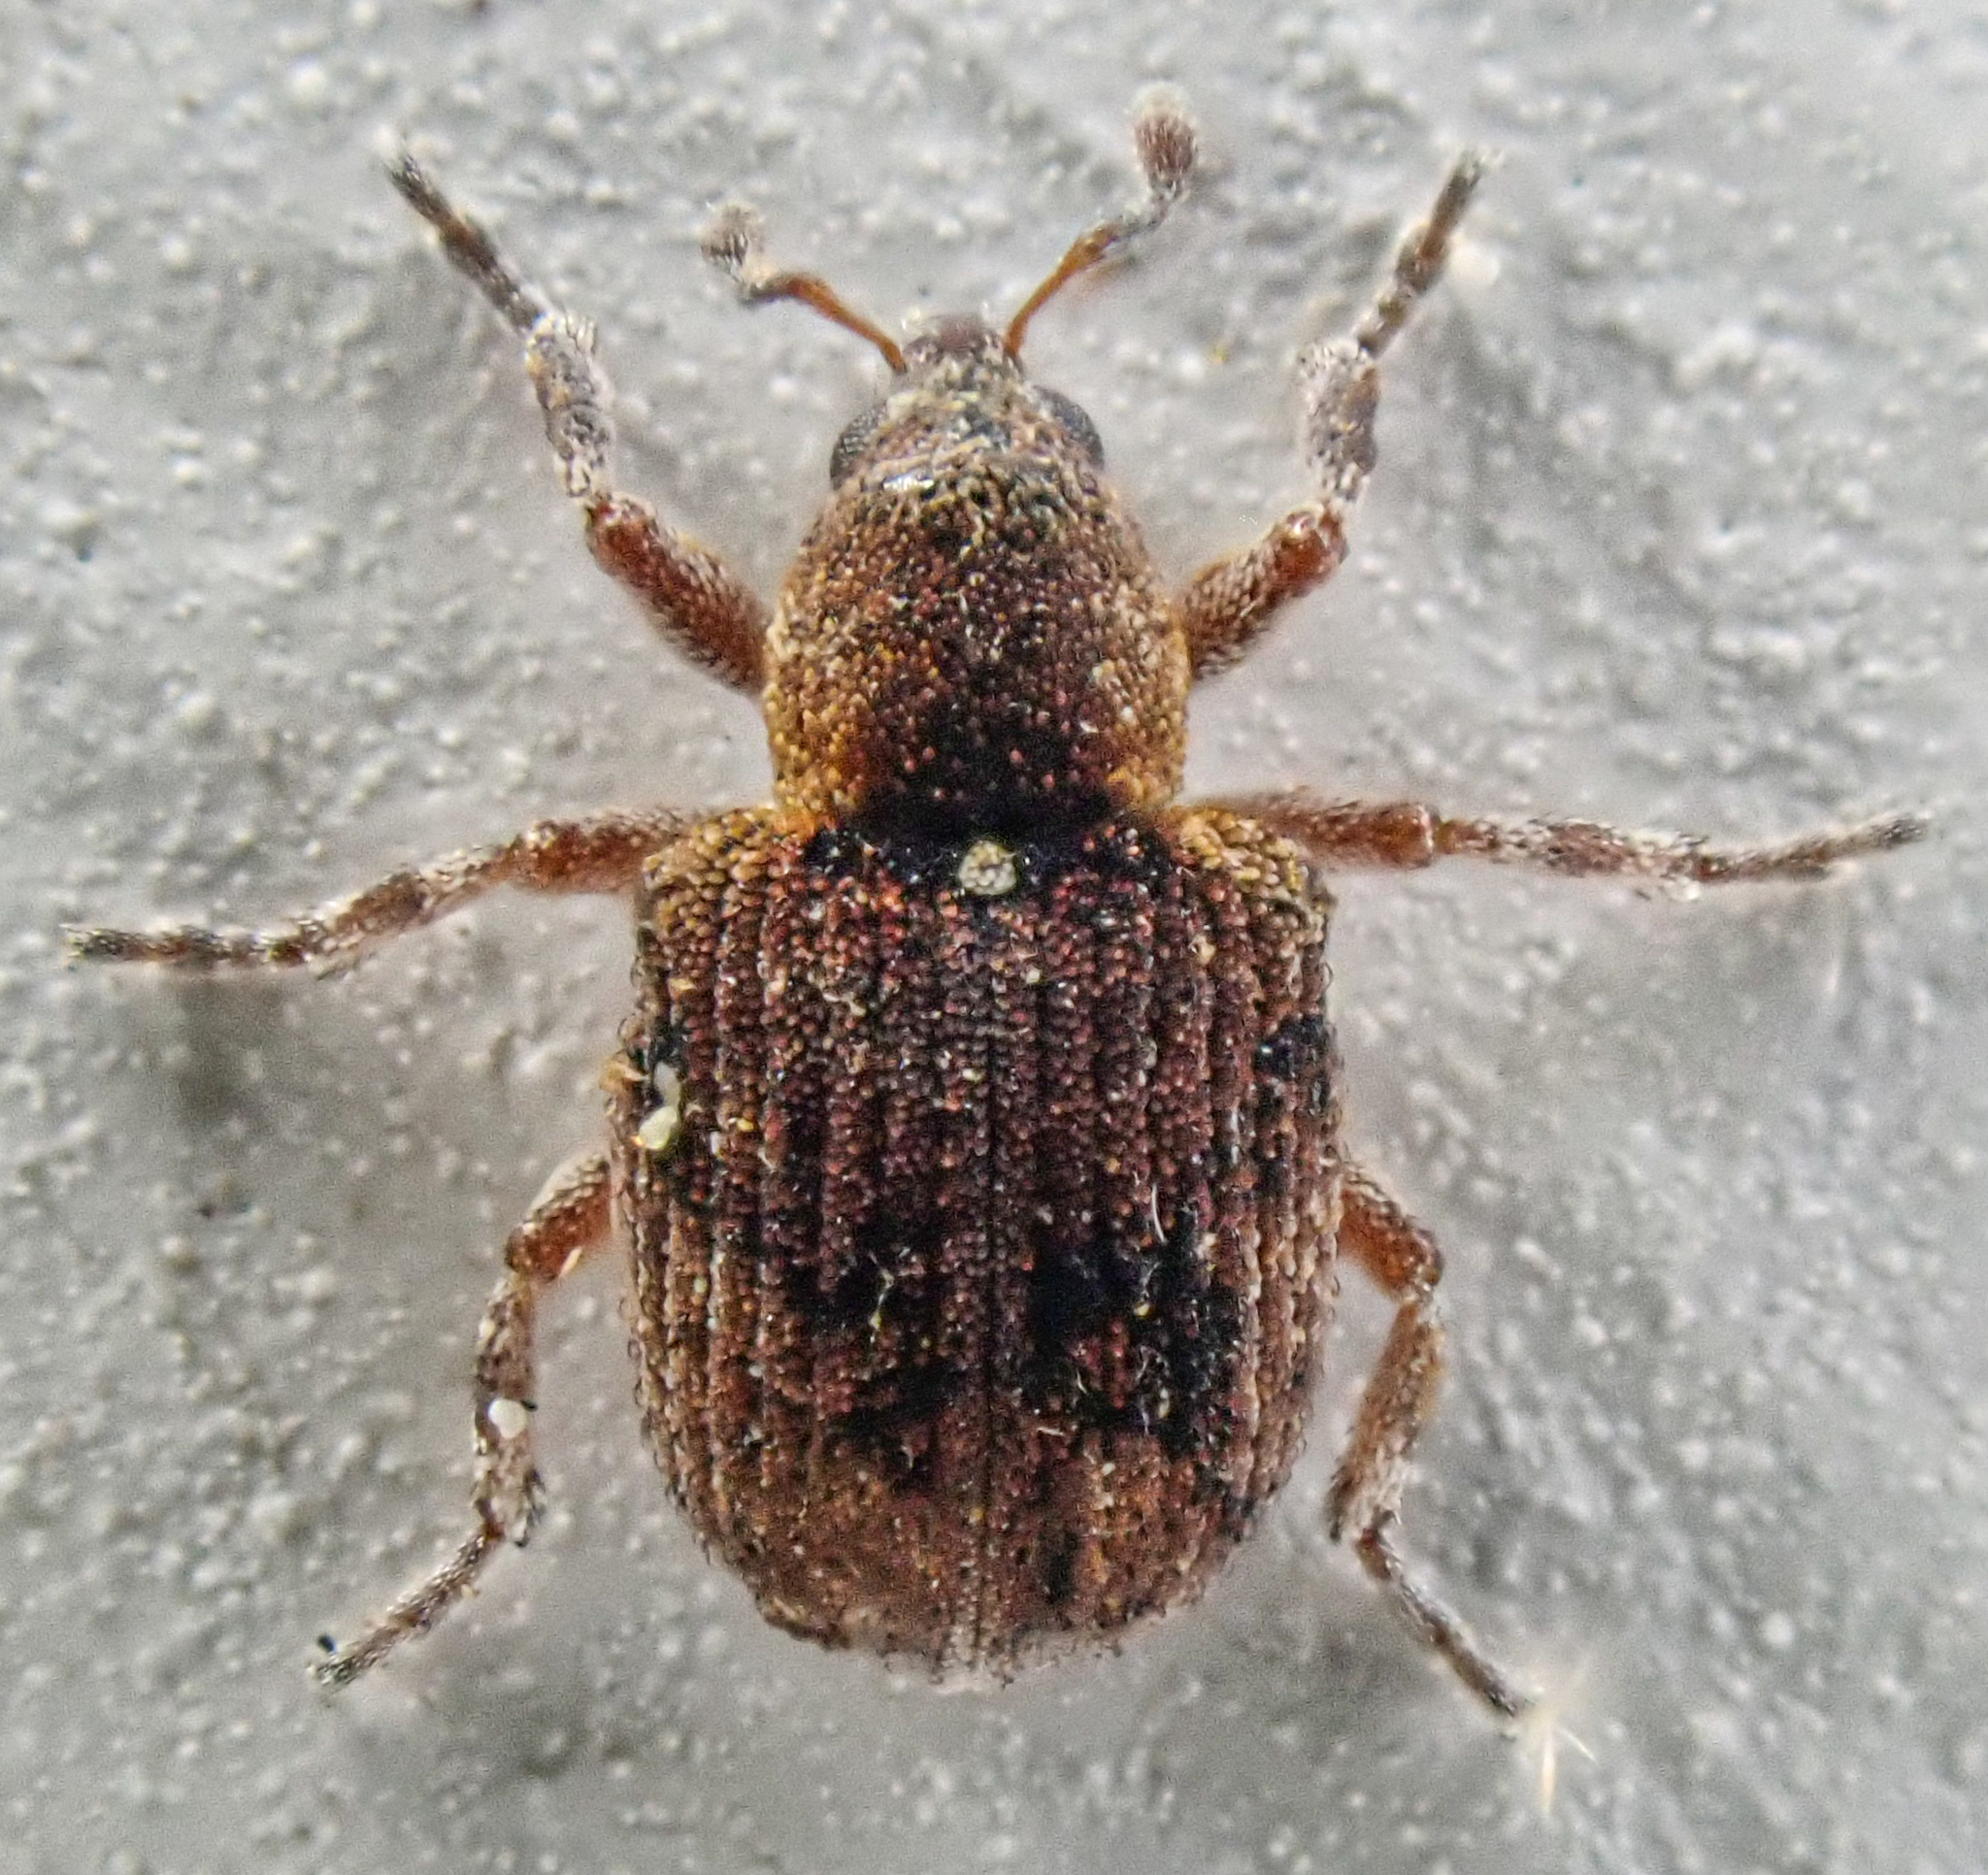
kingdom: Animalia
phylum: Arthropoda
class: Insecta
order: Coleoptera
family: Brachyceridae
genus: Stenopelmus
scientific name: Stenopelmus rufinasus
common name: Azolla weevil
